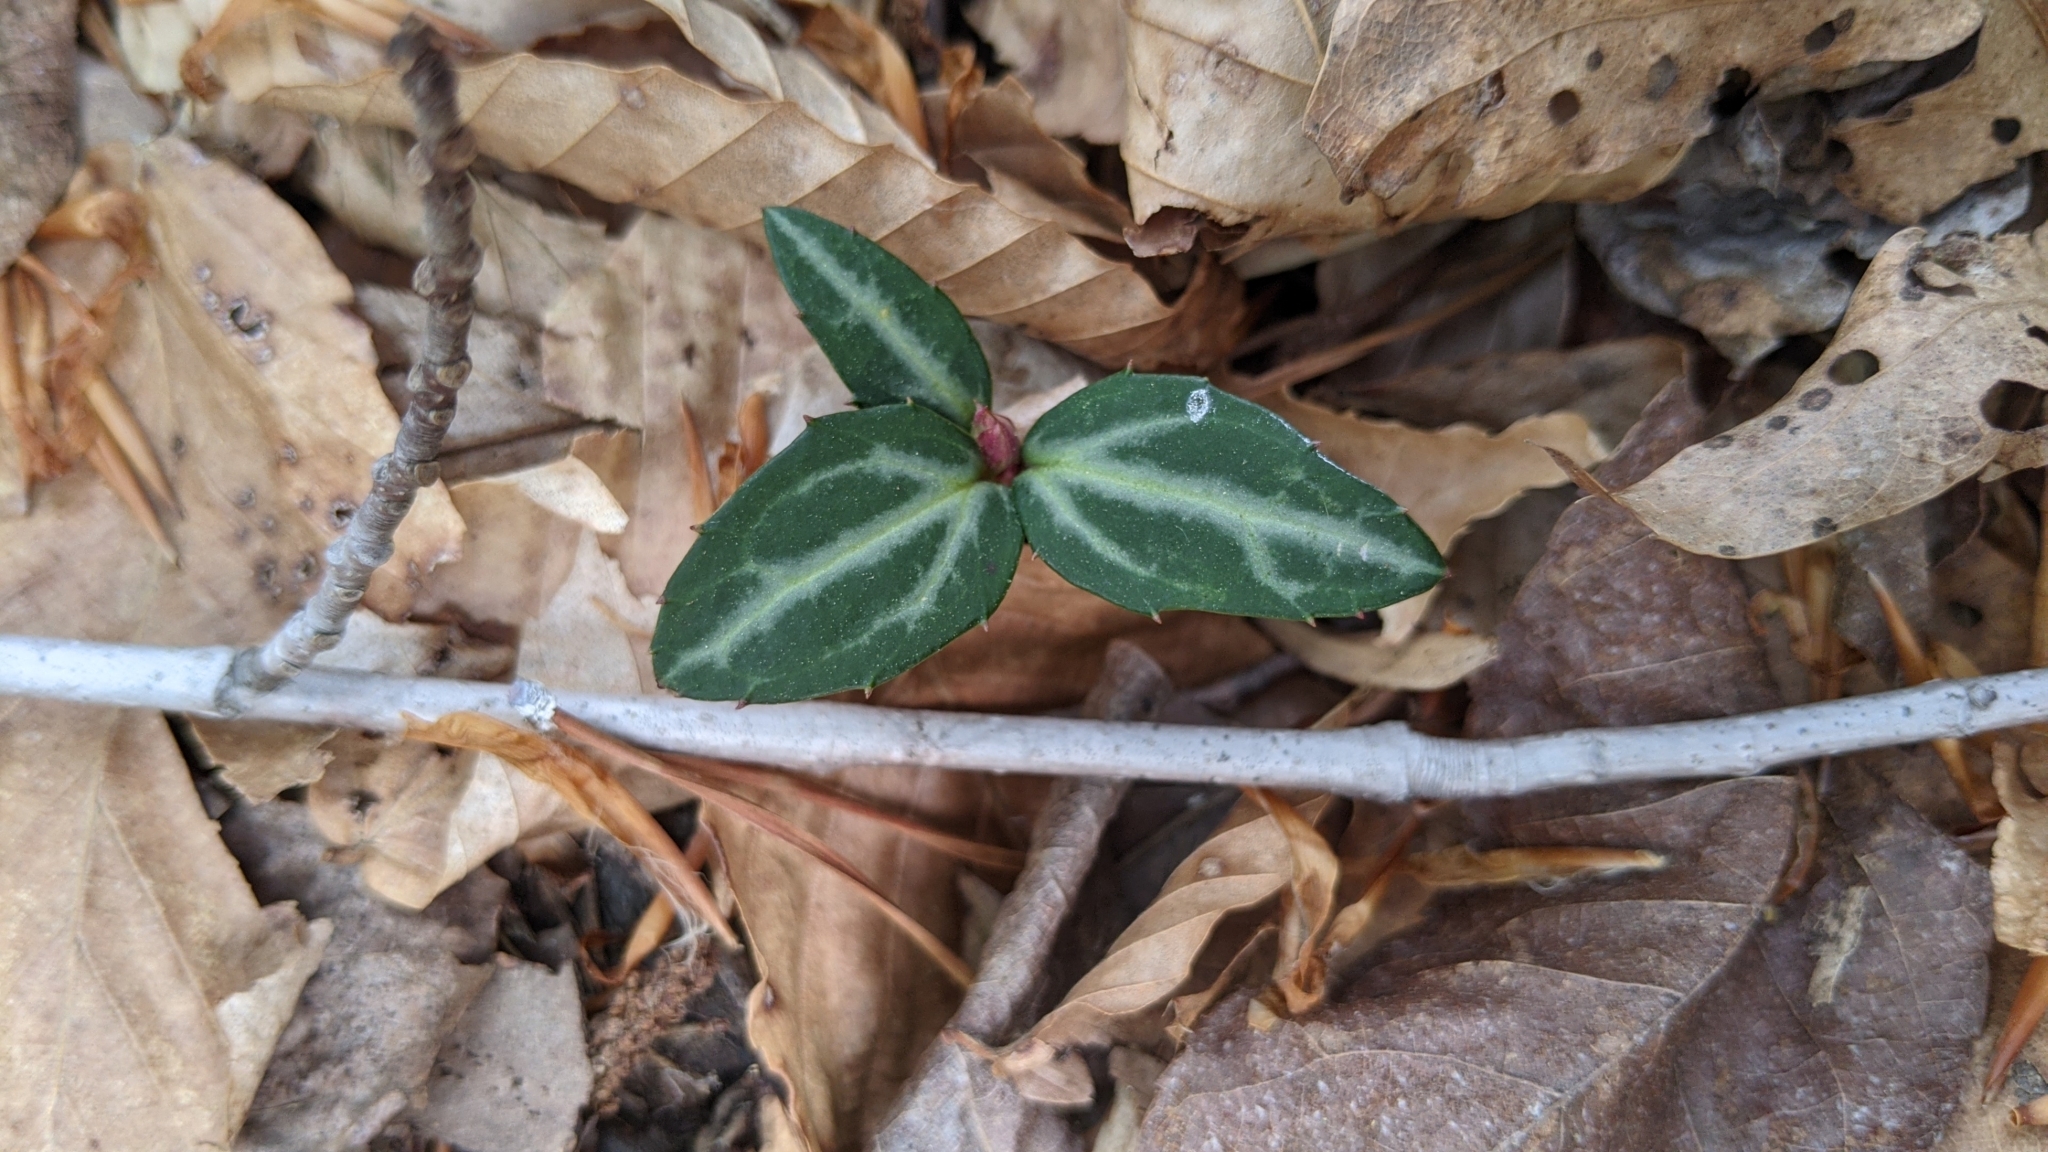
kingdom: Plantae
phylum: Tracheophyta
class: Magnoliopsida
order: Ericales
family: Ericaceae
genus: Chimaphila
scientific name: Chimaphila maculata
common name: Spotted pipsissewa
